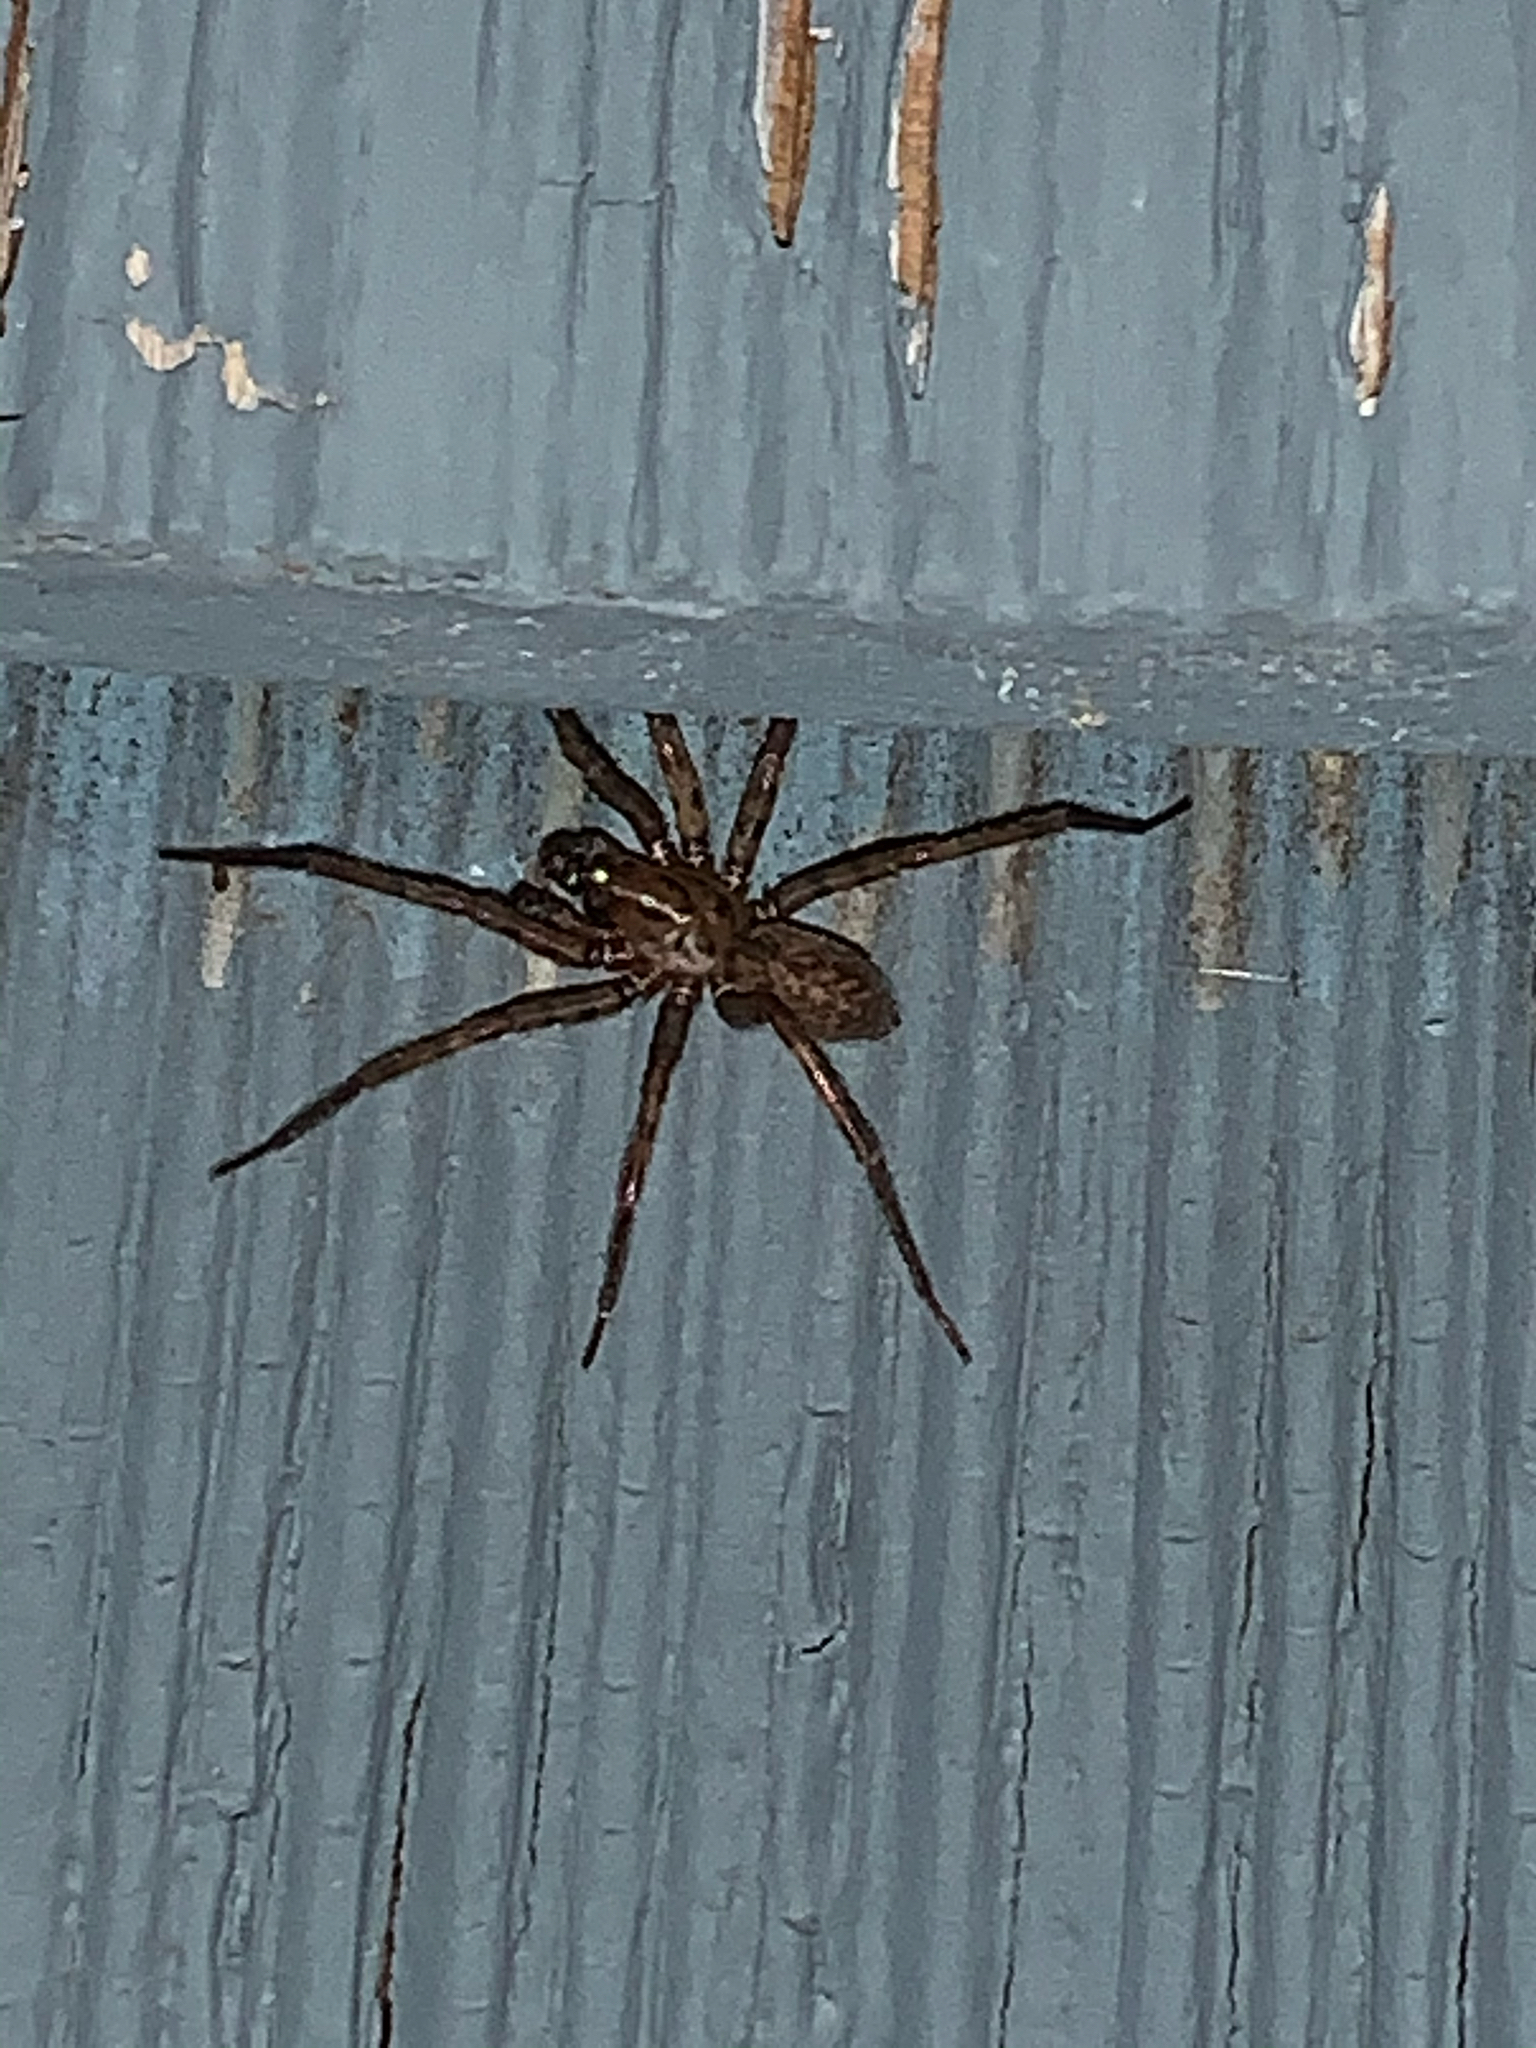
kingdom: Animalia
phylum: Arthropoda
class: Arachnida
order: Araneae
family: Agelenidae
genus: Coras
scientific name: Coras
